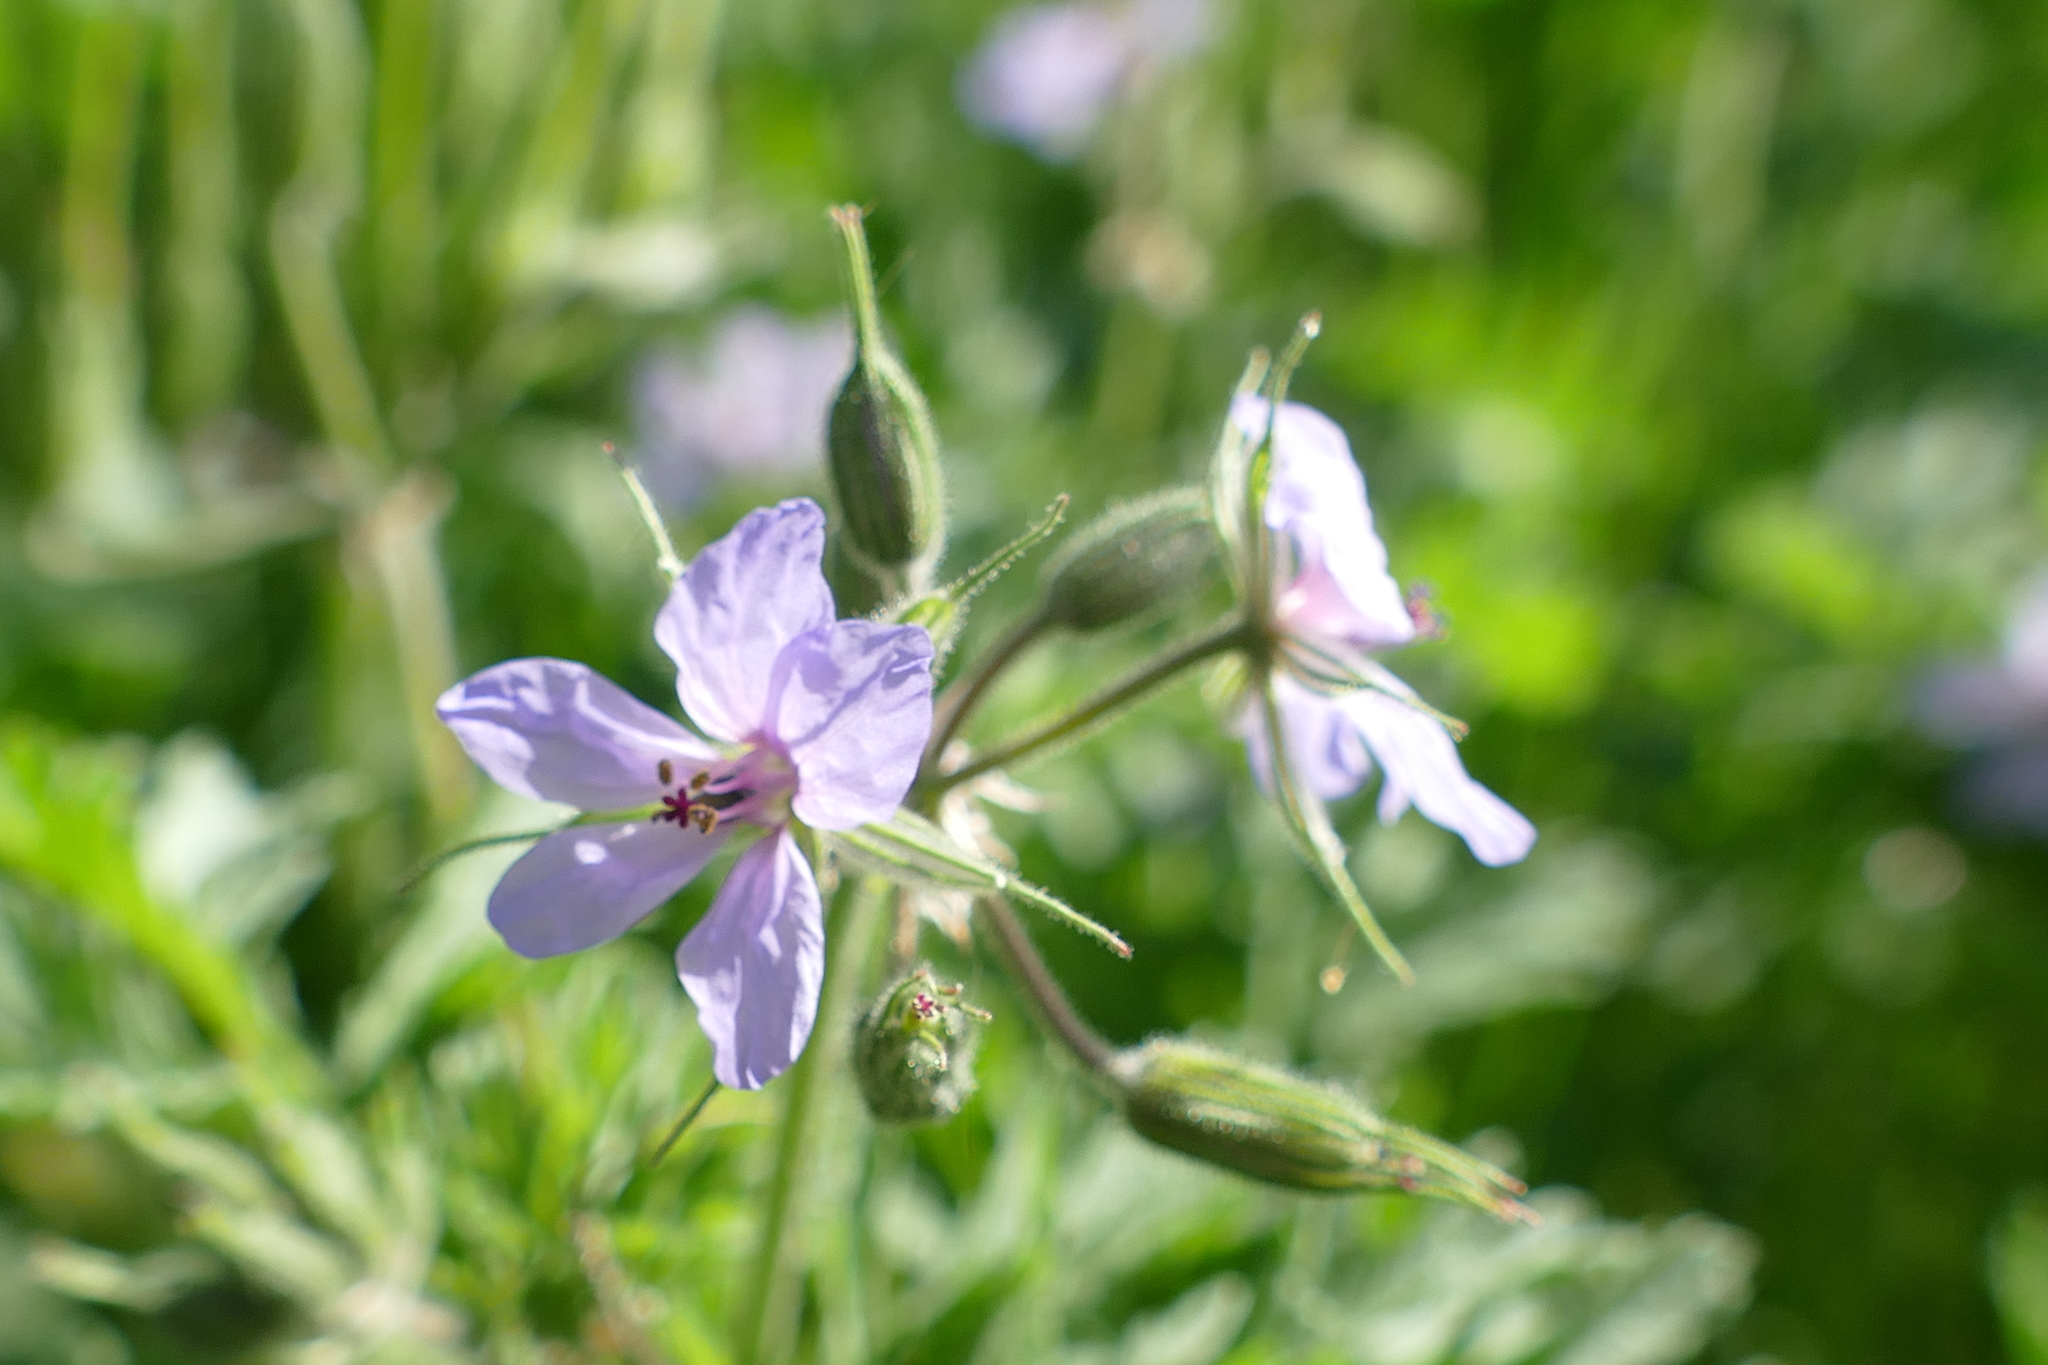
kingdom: Plantae
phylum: Tracheophyta
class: Magnoliopsida
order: Geraniales
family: Geraniaceae
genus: Erodium
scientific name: Erodium ciconium
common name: Common stork's bill
